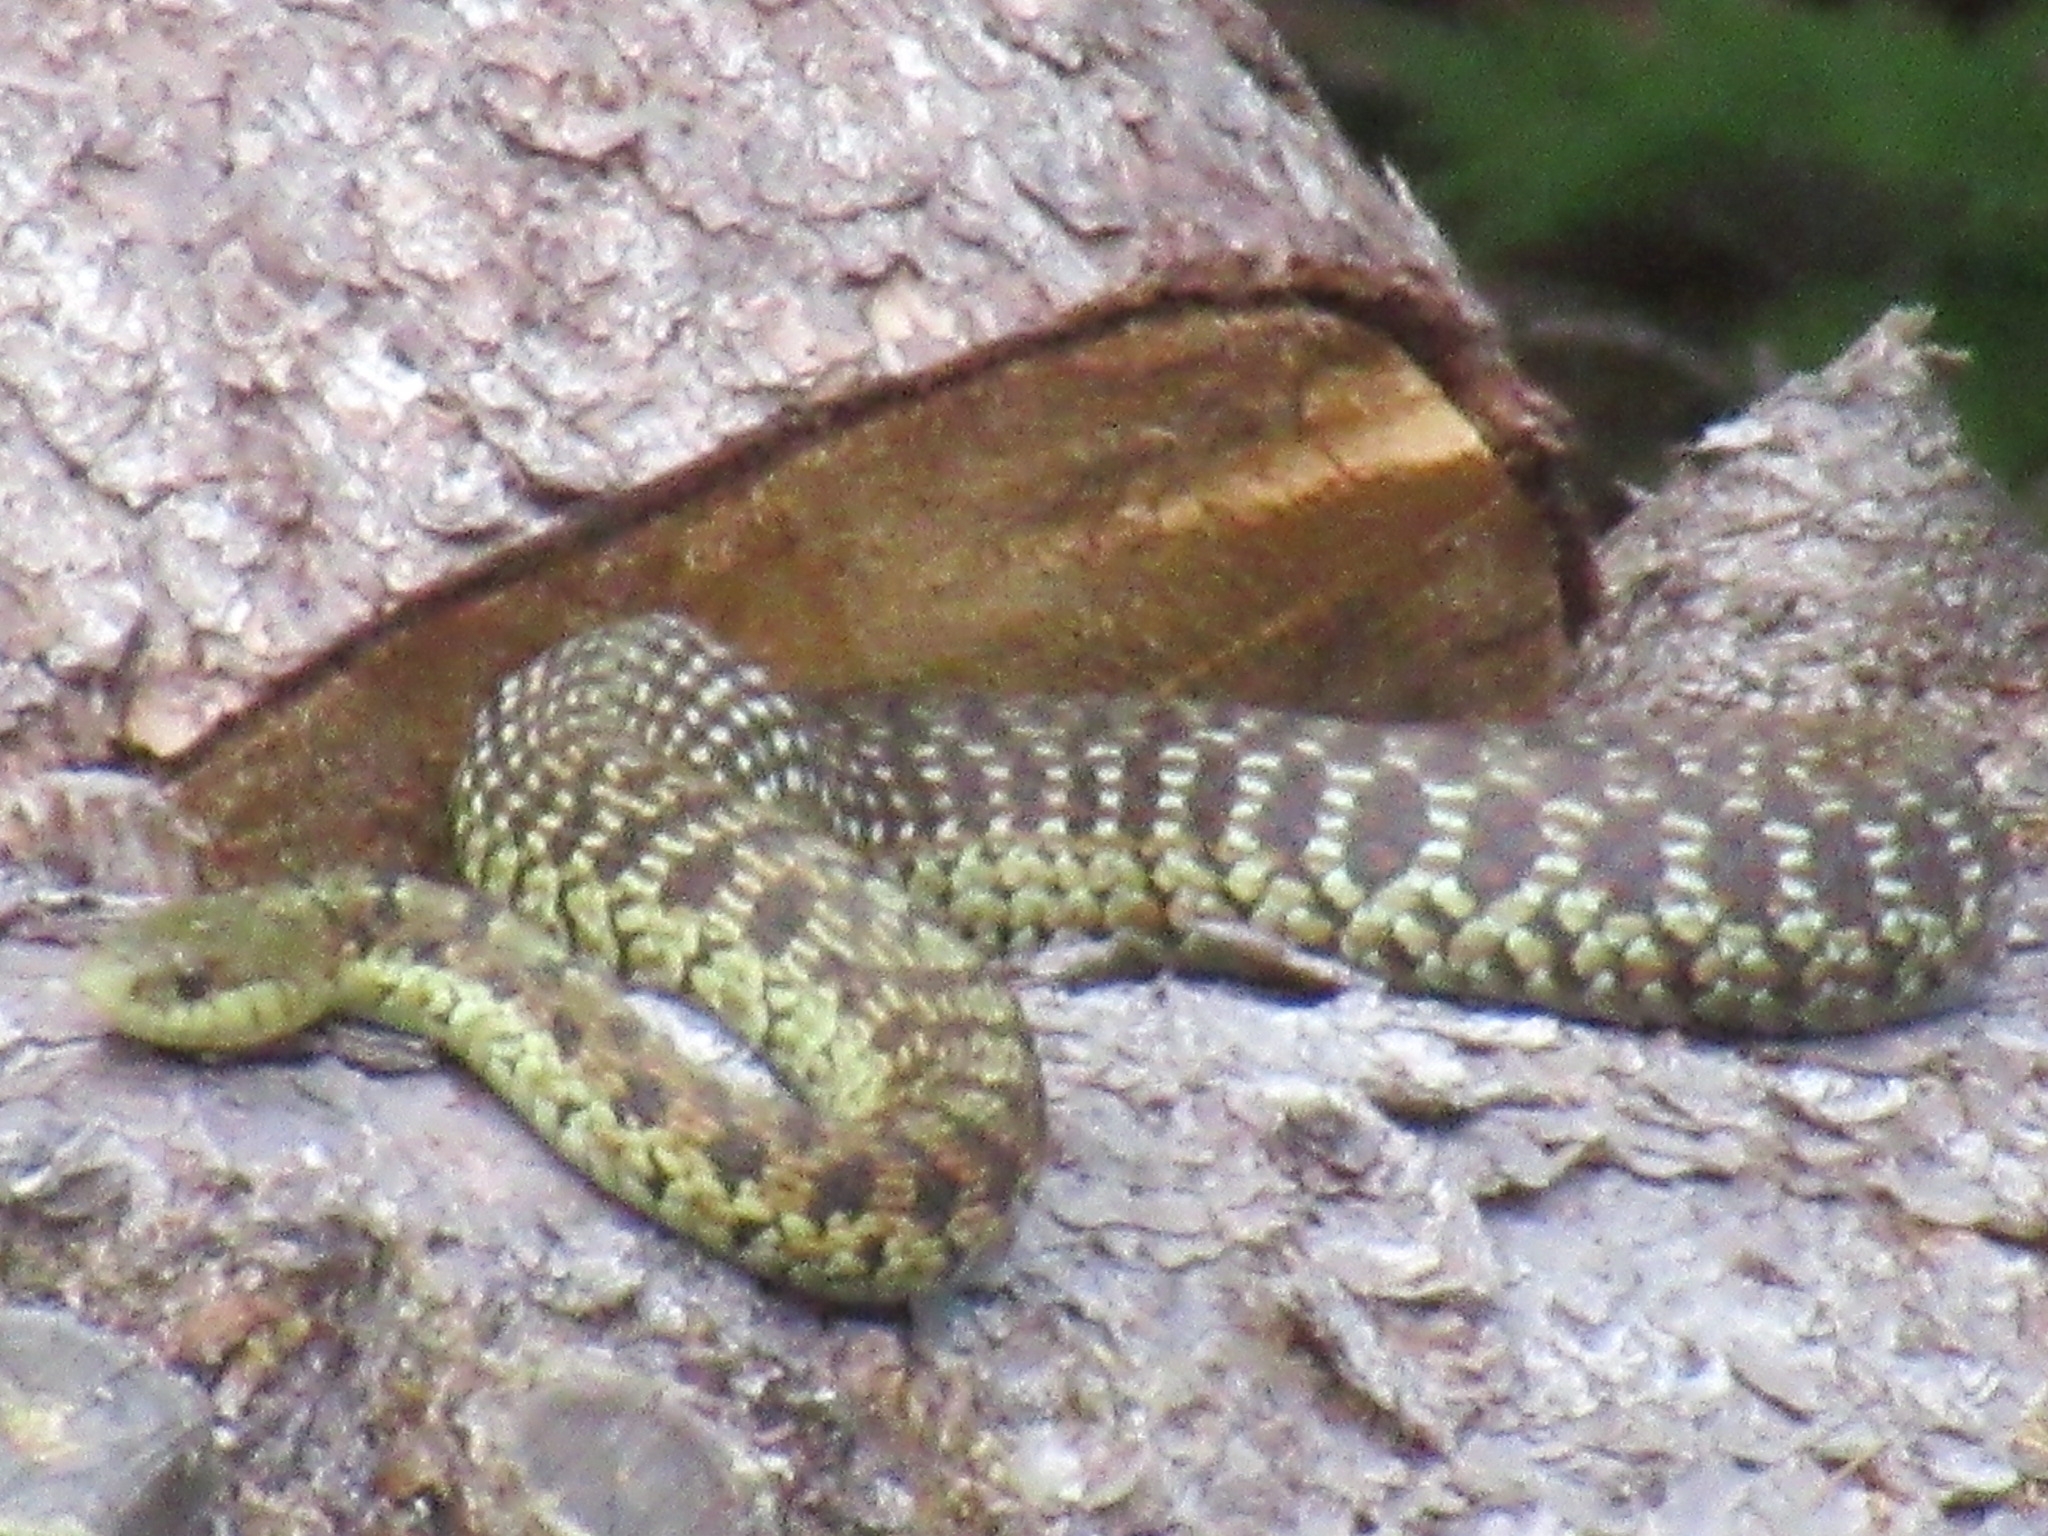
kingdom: Animalia
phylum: Chordata
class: Squamata
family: Colubridae
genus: Thamnophis
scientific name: Thamnophis sirtalis
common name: Common garter snake
